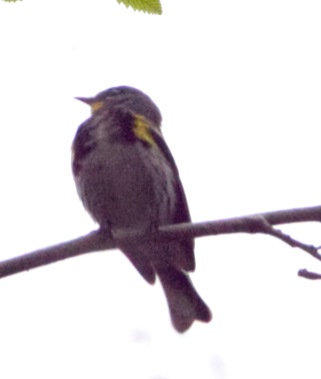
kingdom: Animalia
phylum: Chordata
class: Aves
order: Passeriformes
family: Parulidae
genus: Setophaga
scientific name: Setophaga coronata
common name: Myrtle warbler
